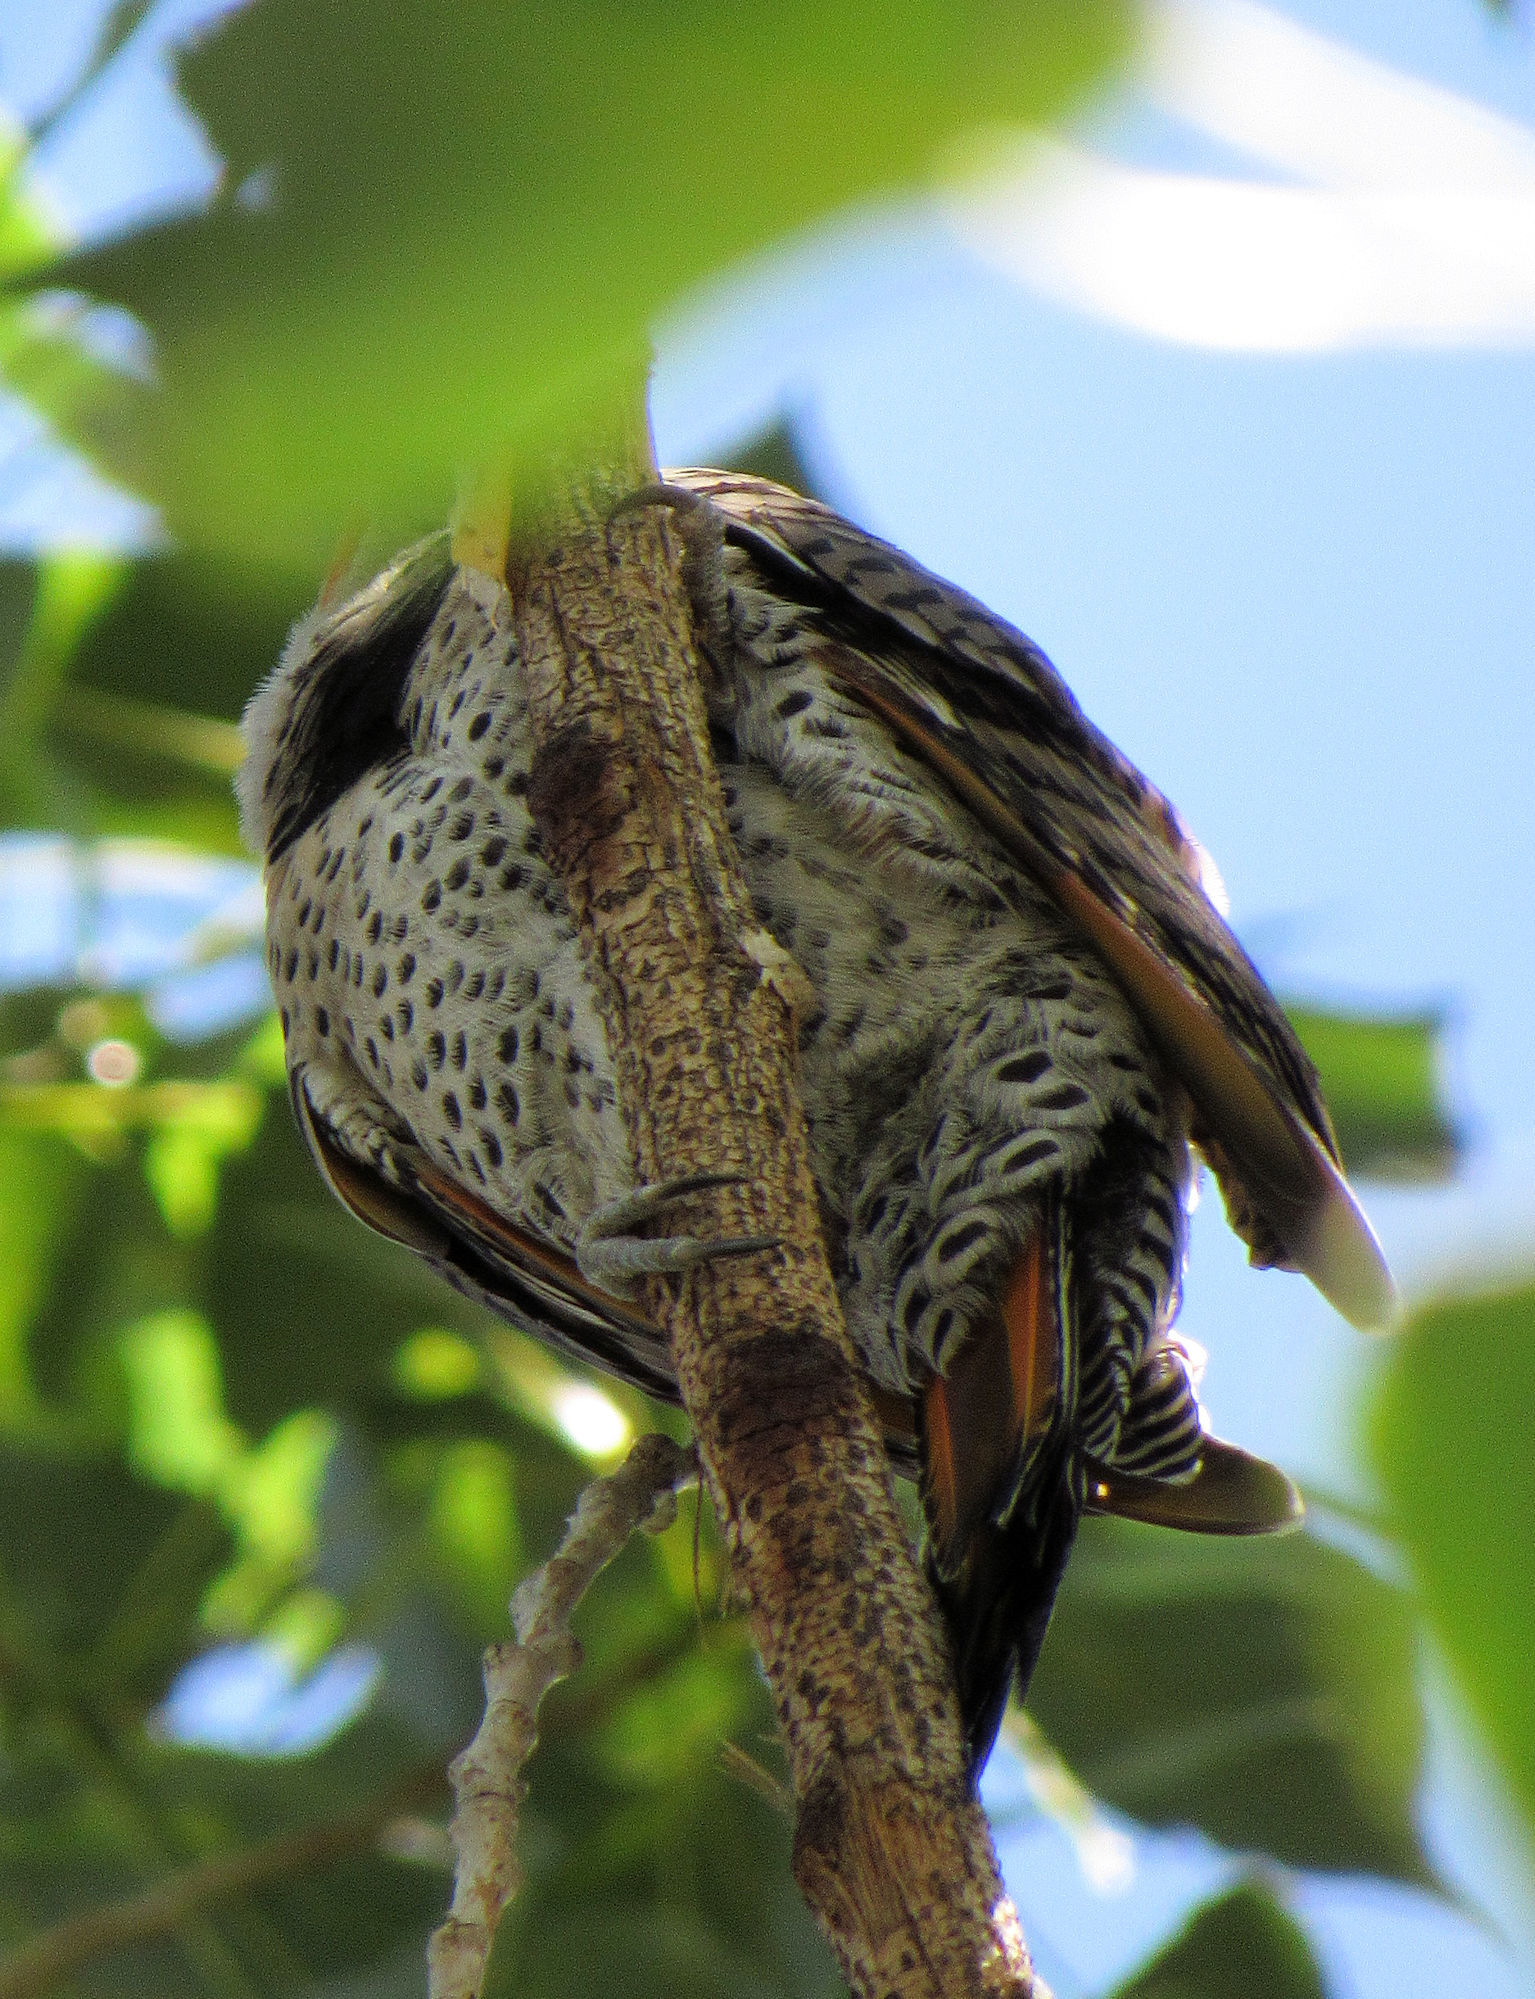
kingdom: Animalia
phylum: Chordata
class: Aves
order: Piciformes
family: Picidae
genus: Colaptes
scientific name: Colaptes auratus
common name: Northern flicker
